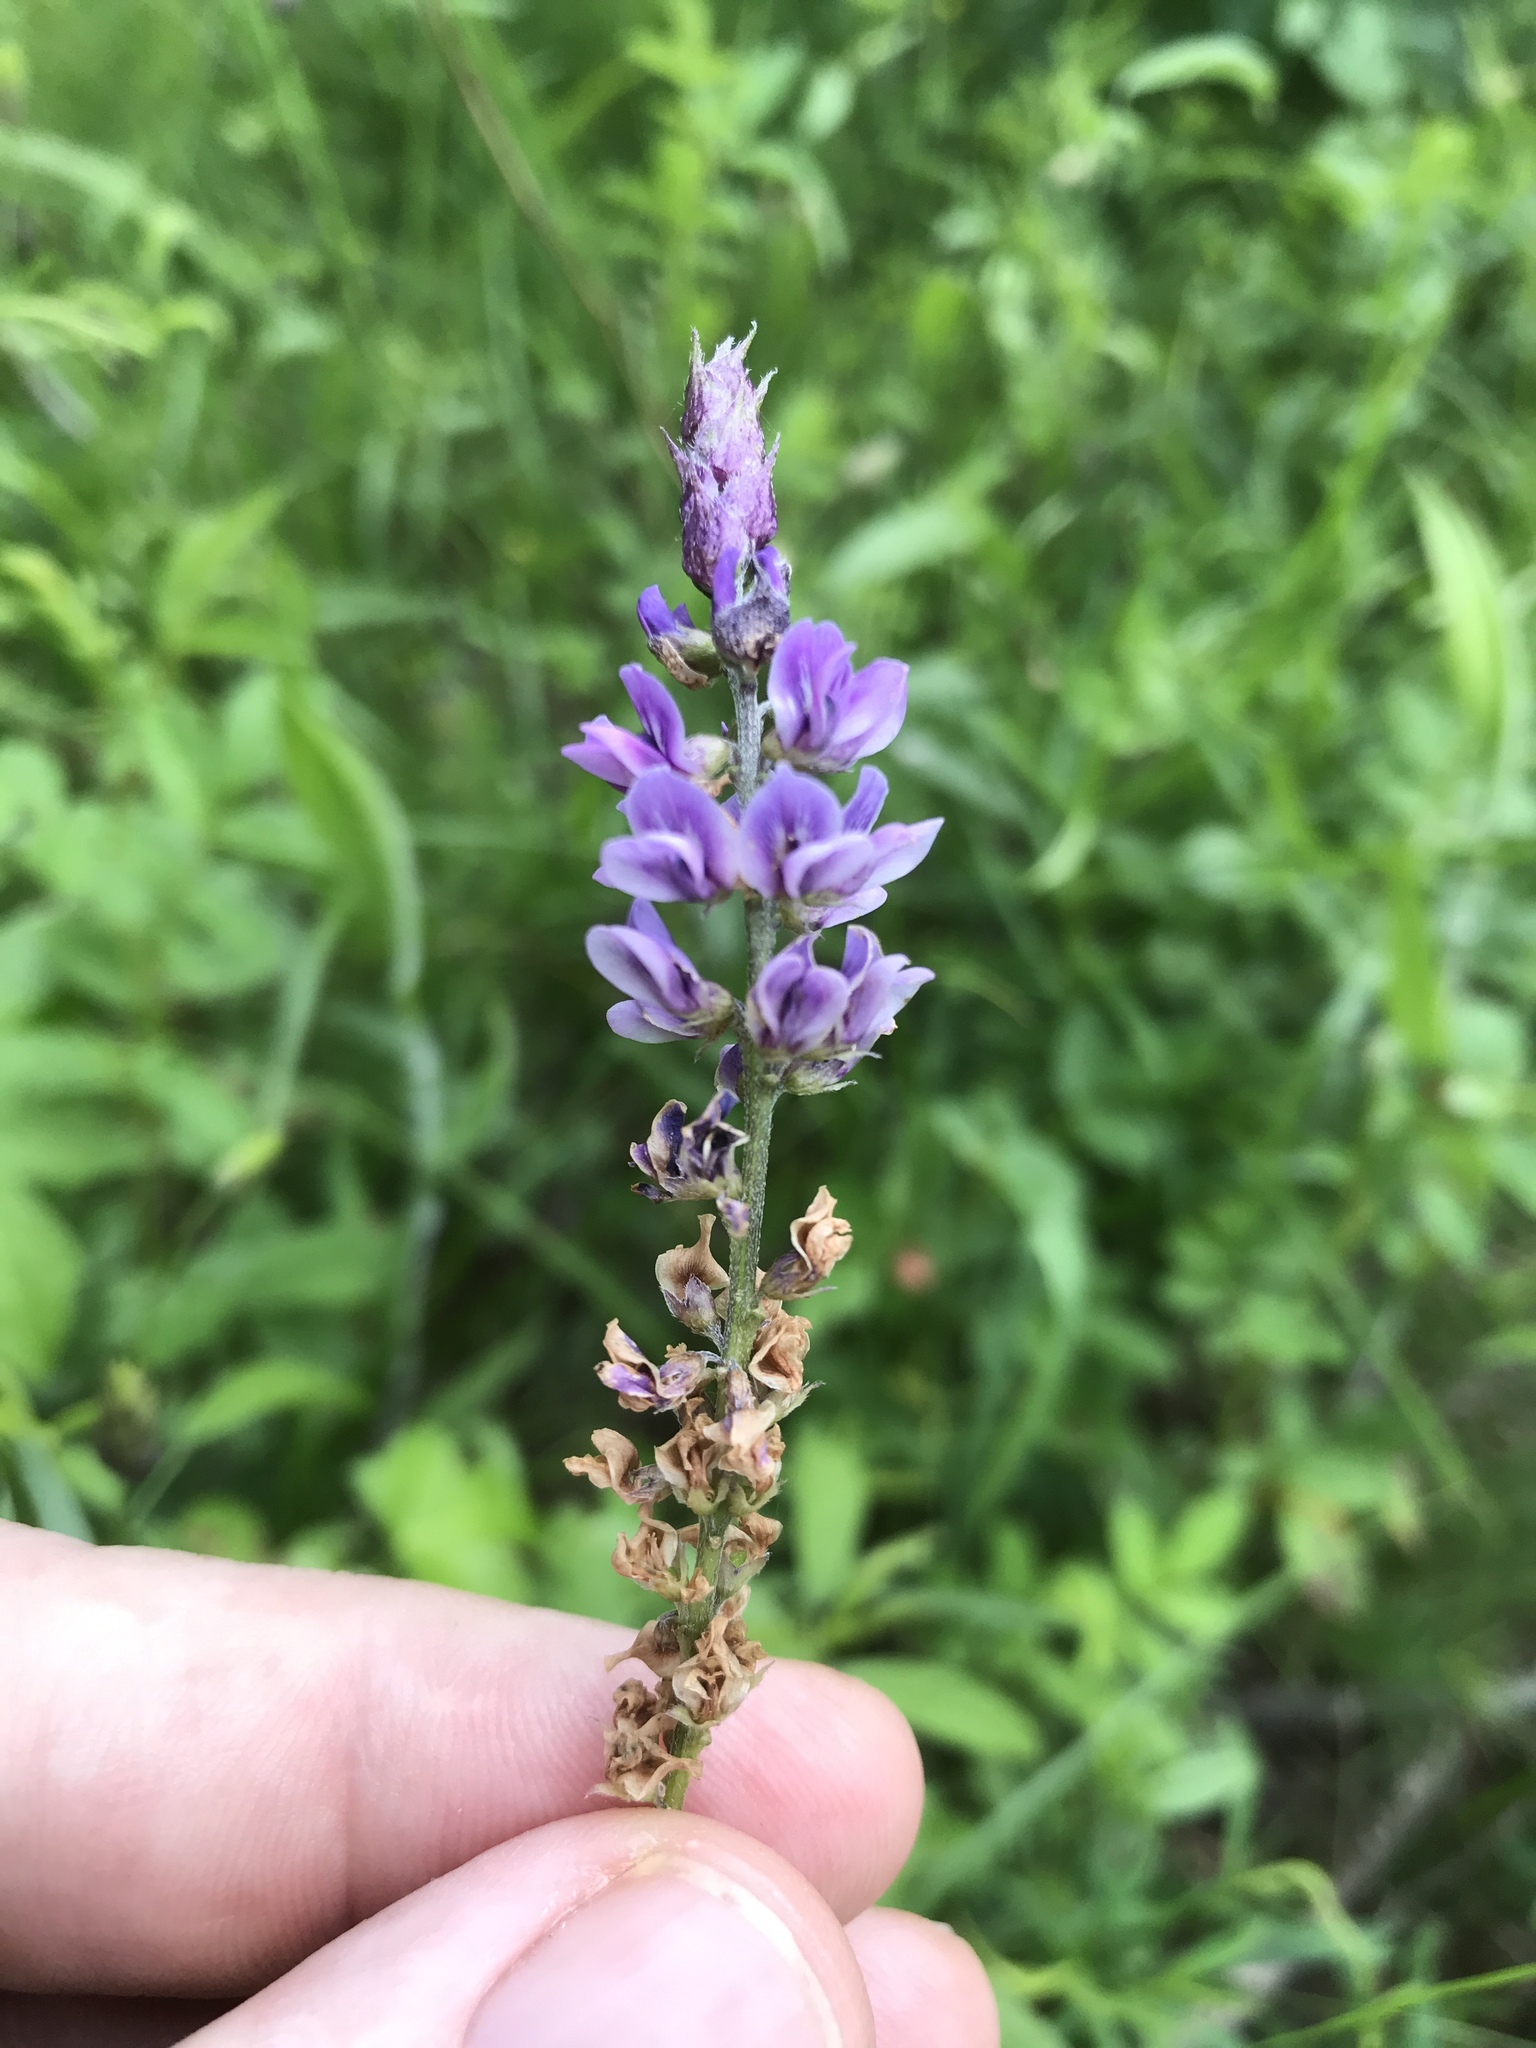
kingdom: Plantae
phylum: Tracheophyta
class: Magnoliopsida
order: Fabales
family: Fabaceae
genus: Orbexilum
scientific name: Orbexilum psoralioides
